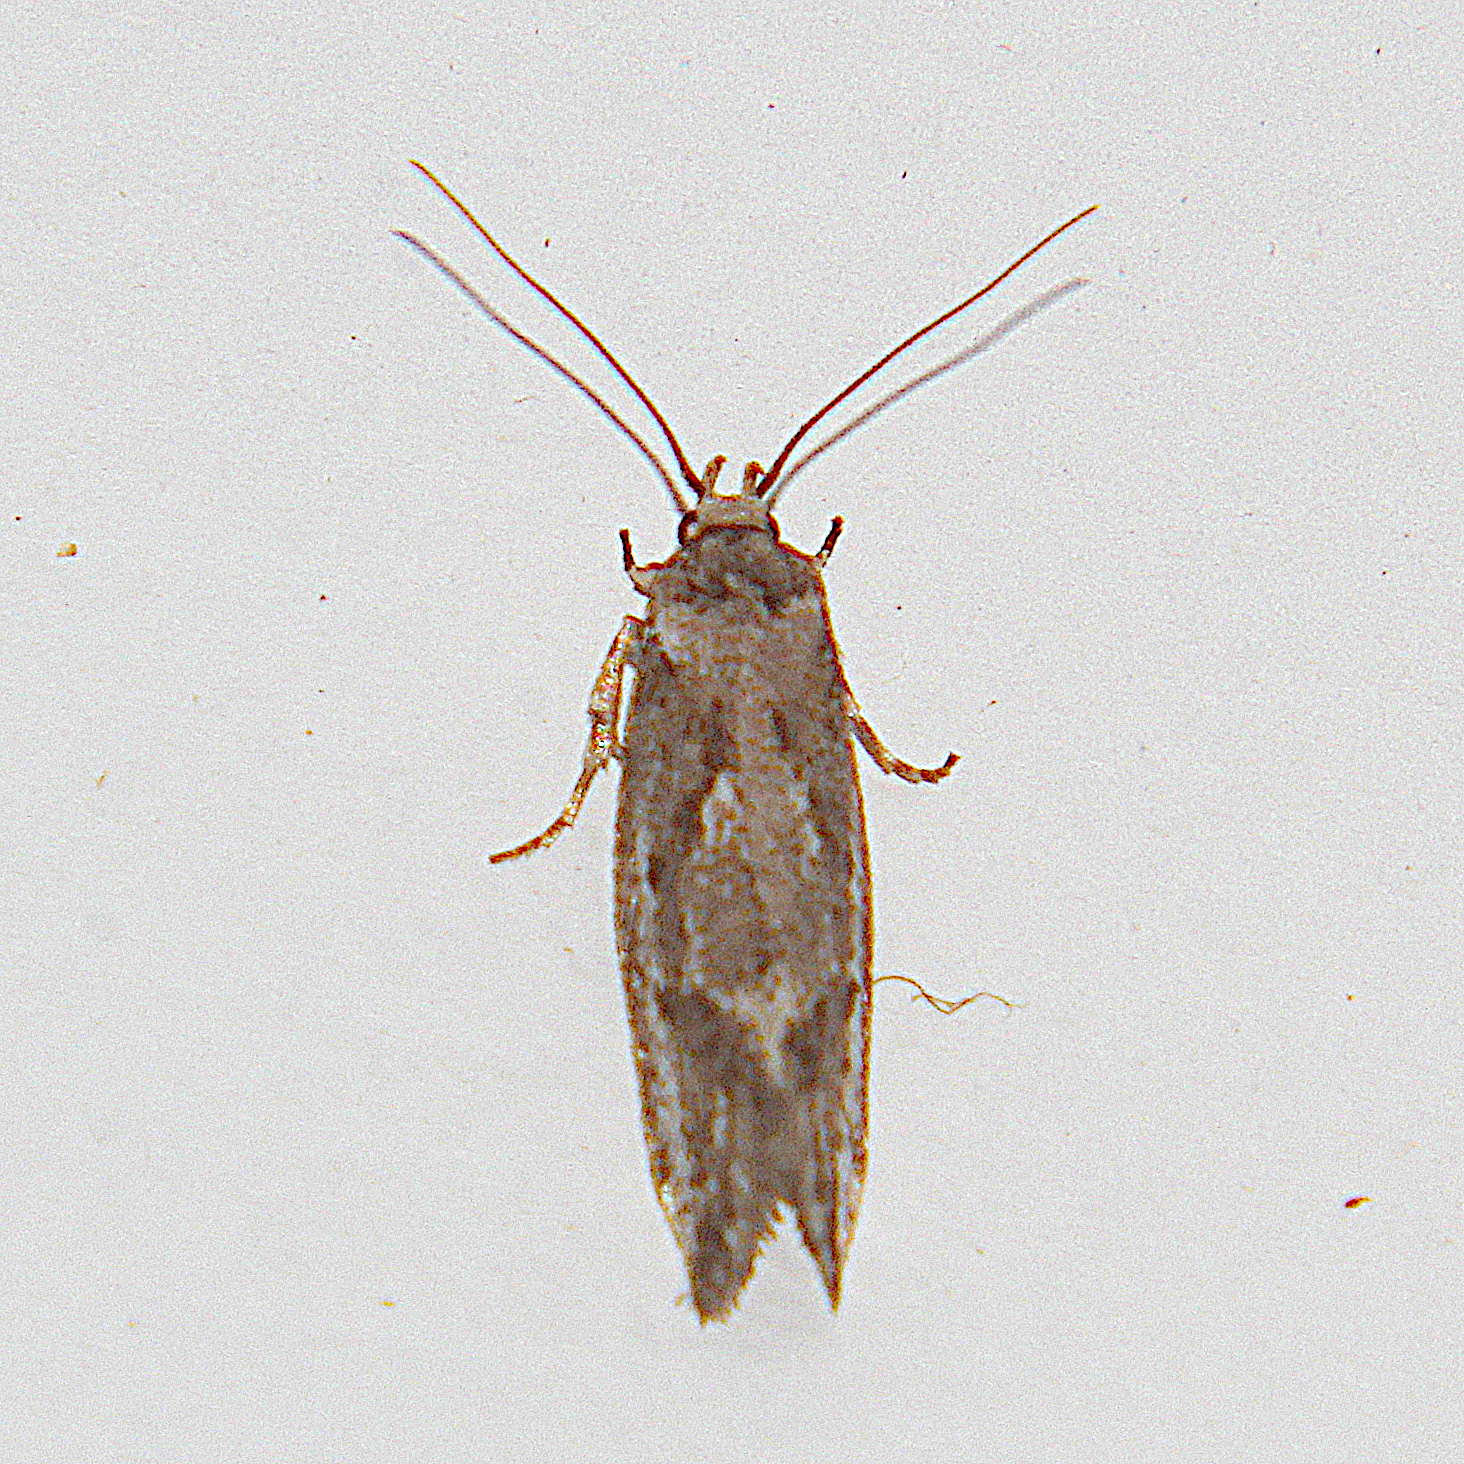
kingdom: Animalia
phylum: Arthropoda
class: Insecta
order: Lepidoptera
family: Oecophoridae
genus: Tingena
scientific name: Tingena hemimochla
